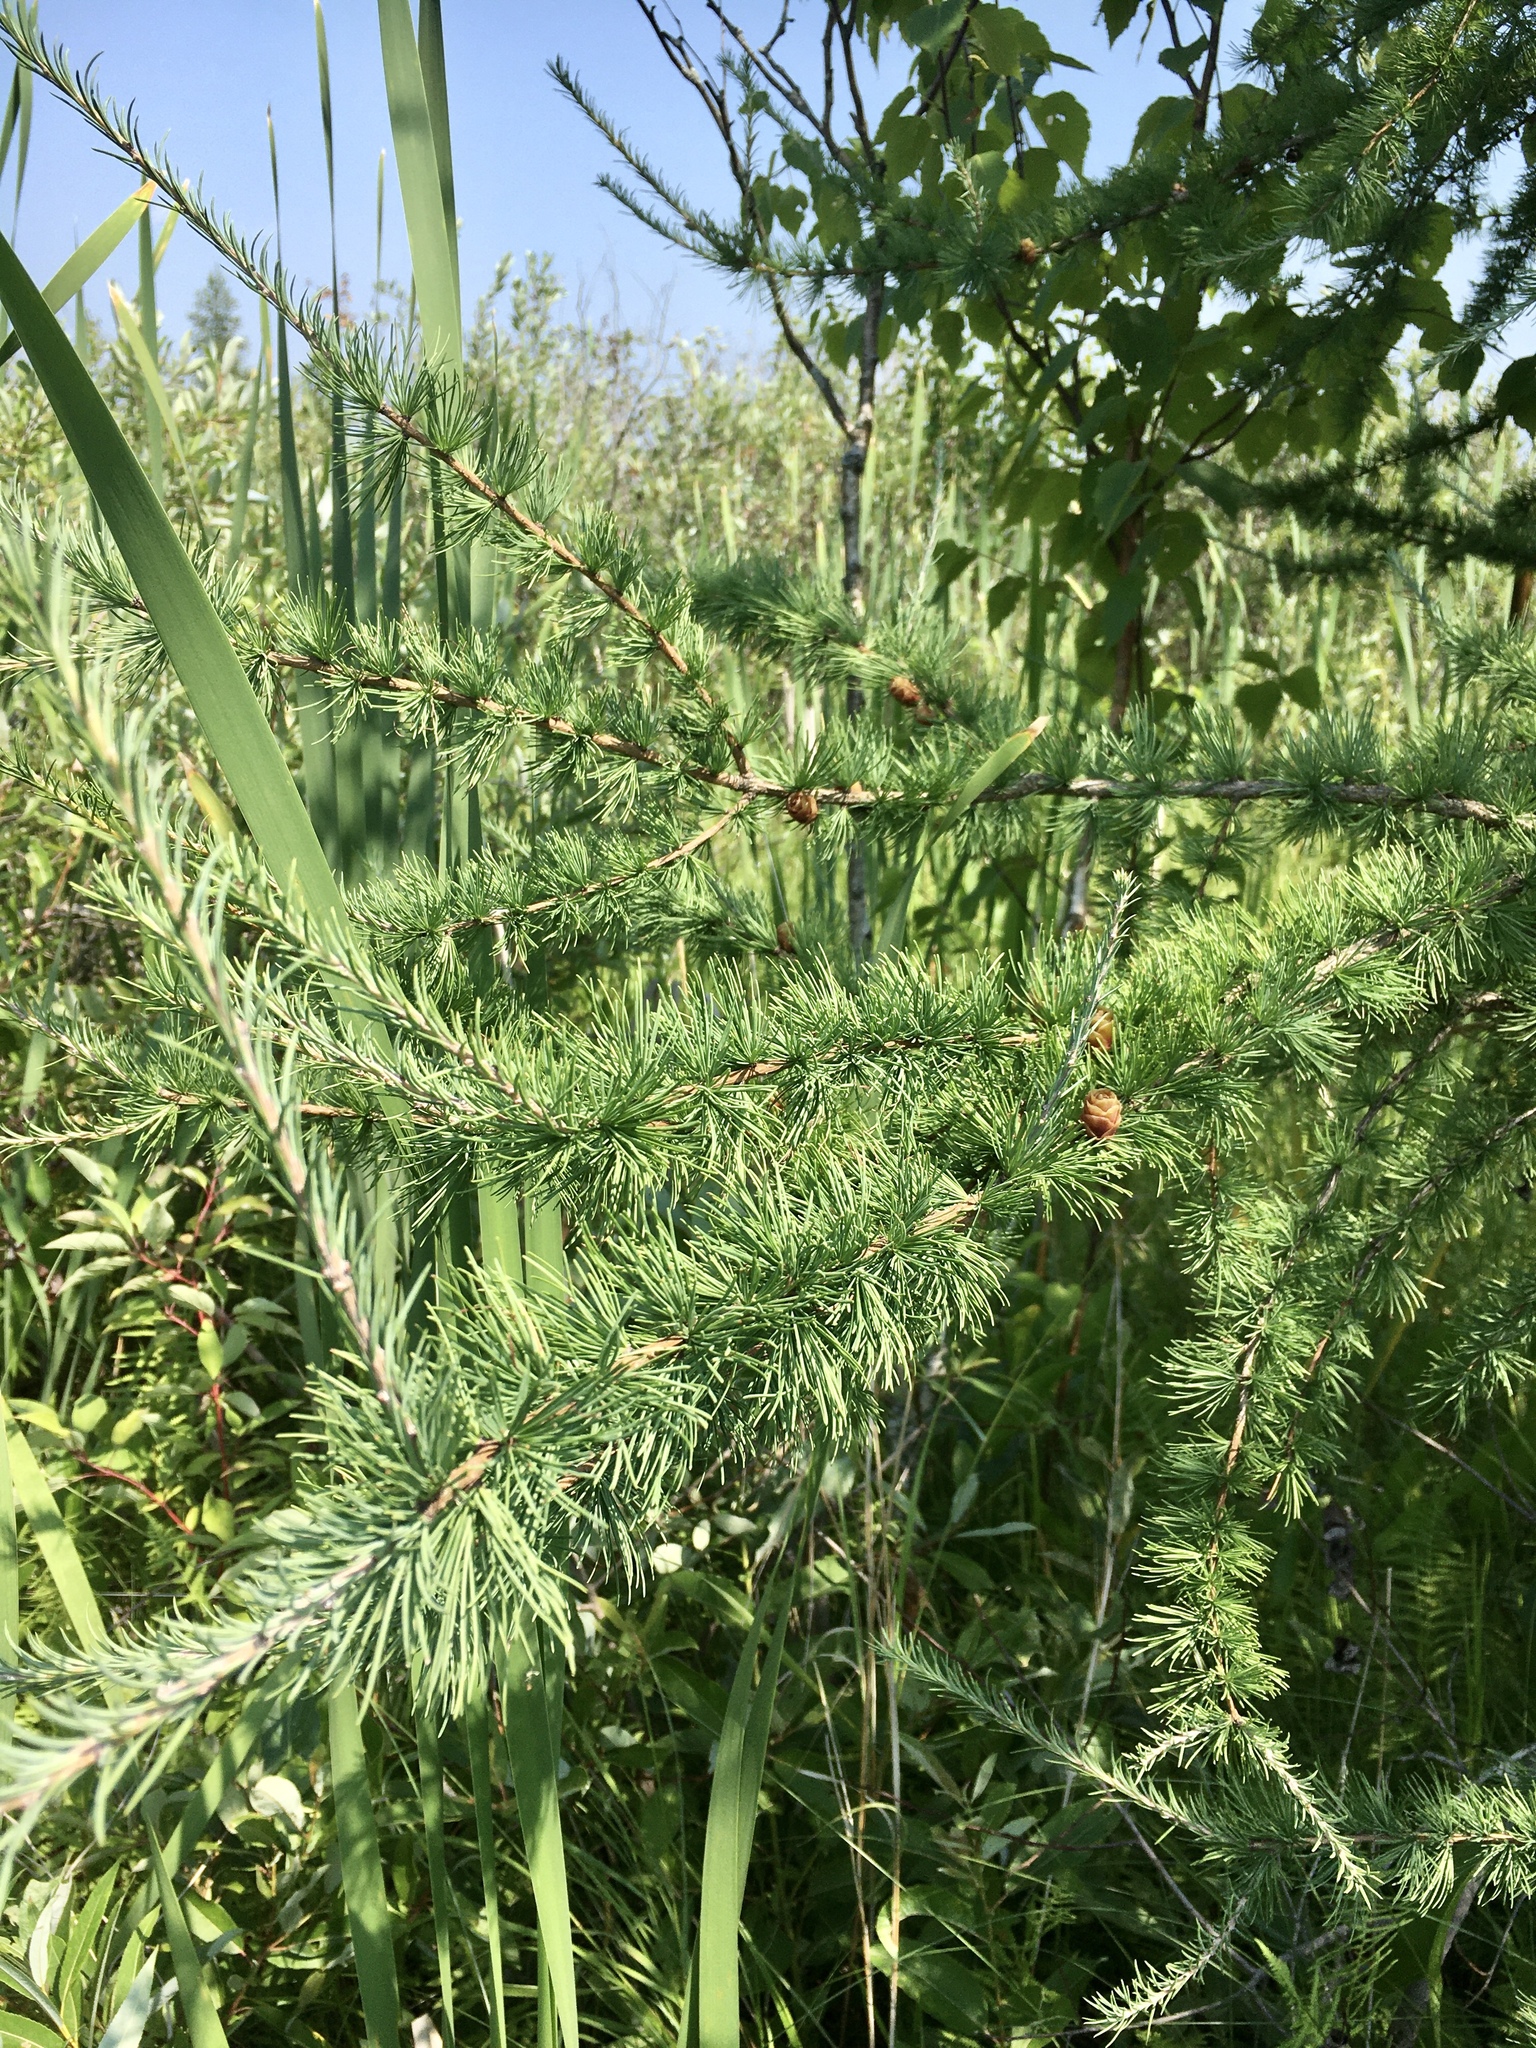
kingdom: Plantae
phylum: Tracheophyta
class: Pinopsida
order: Pinales
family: Pinaceae
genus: Larix
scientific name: Larix laricina
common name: American larch
